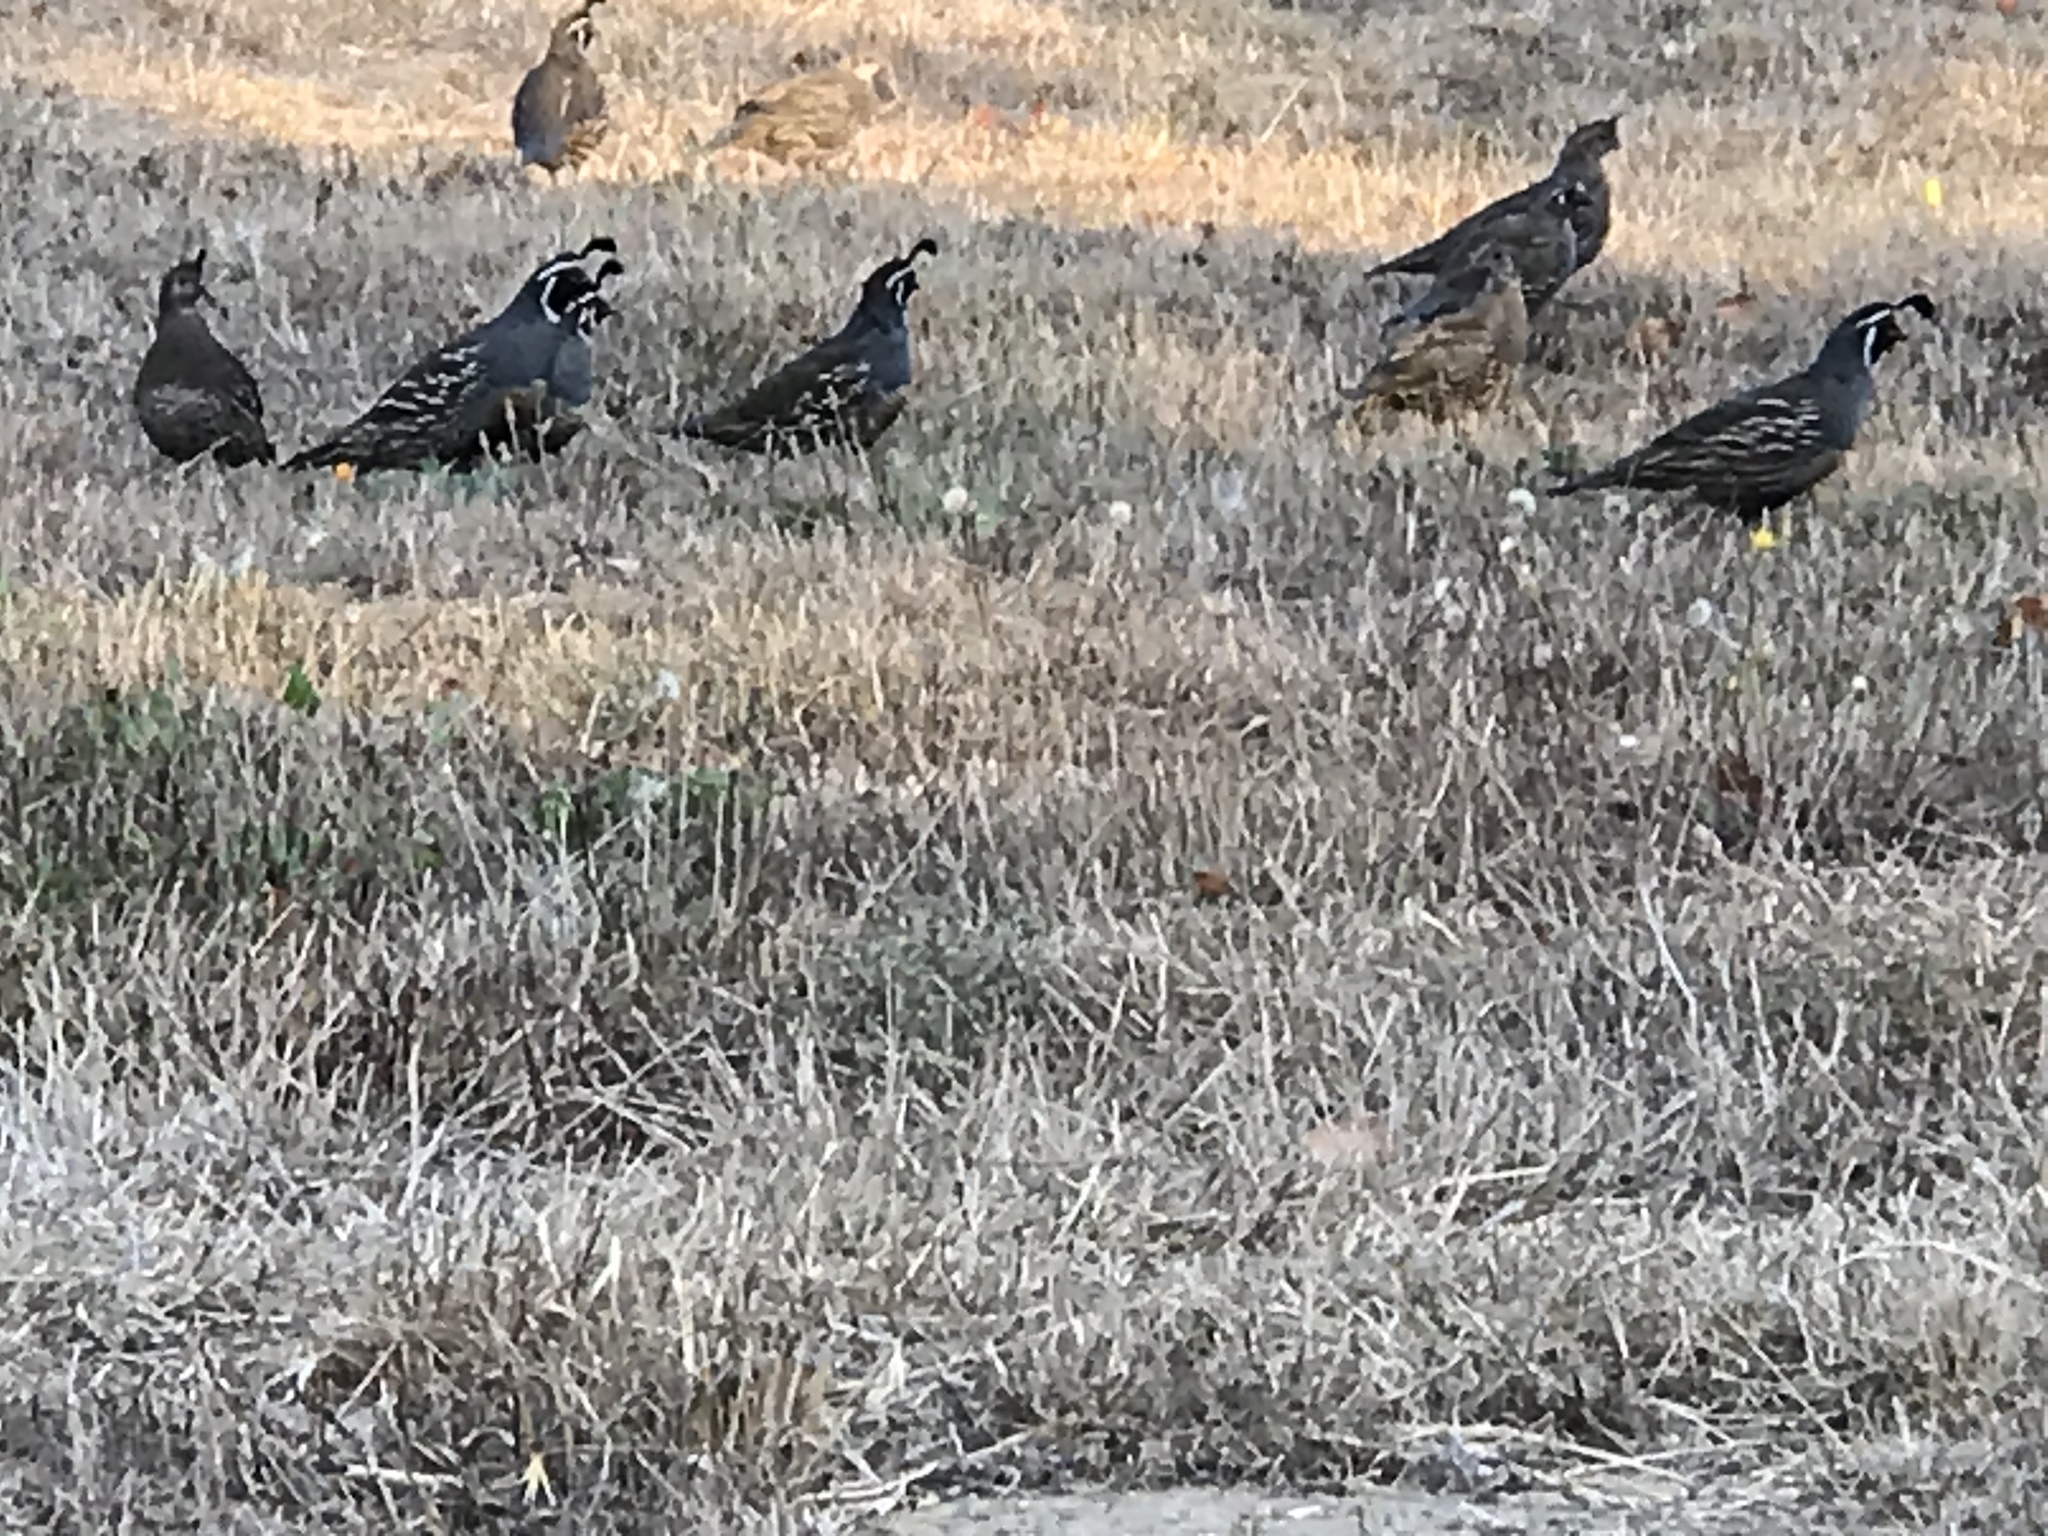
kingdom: Animalia
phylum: Chordata
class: Aves
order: Galliformes
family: Odontophoridae
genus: Callipepla
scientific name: Callipepla californica
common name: California quail
